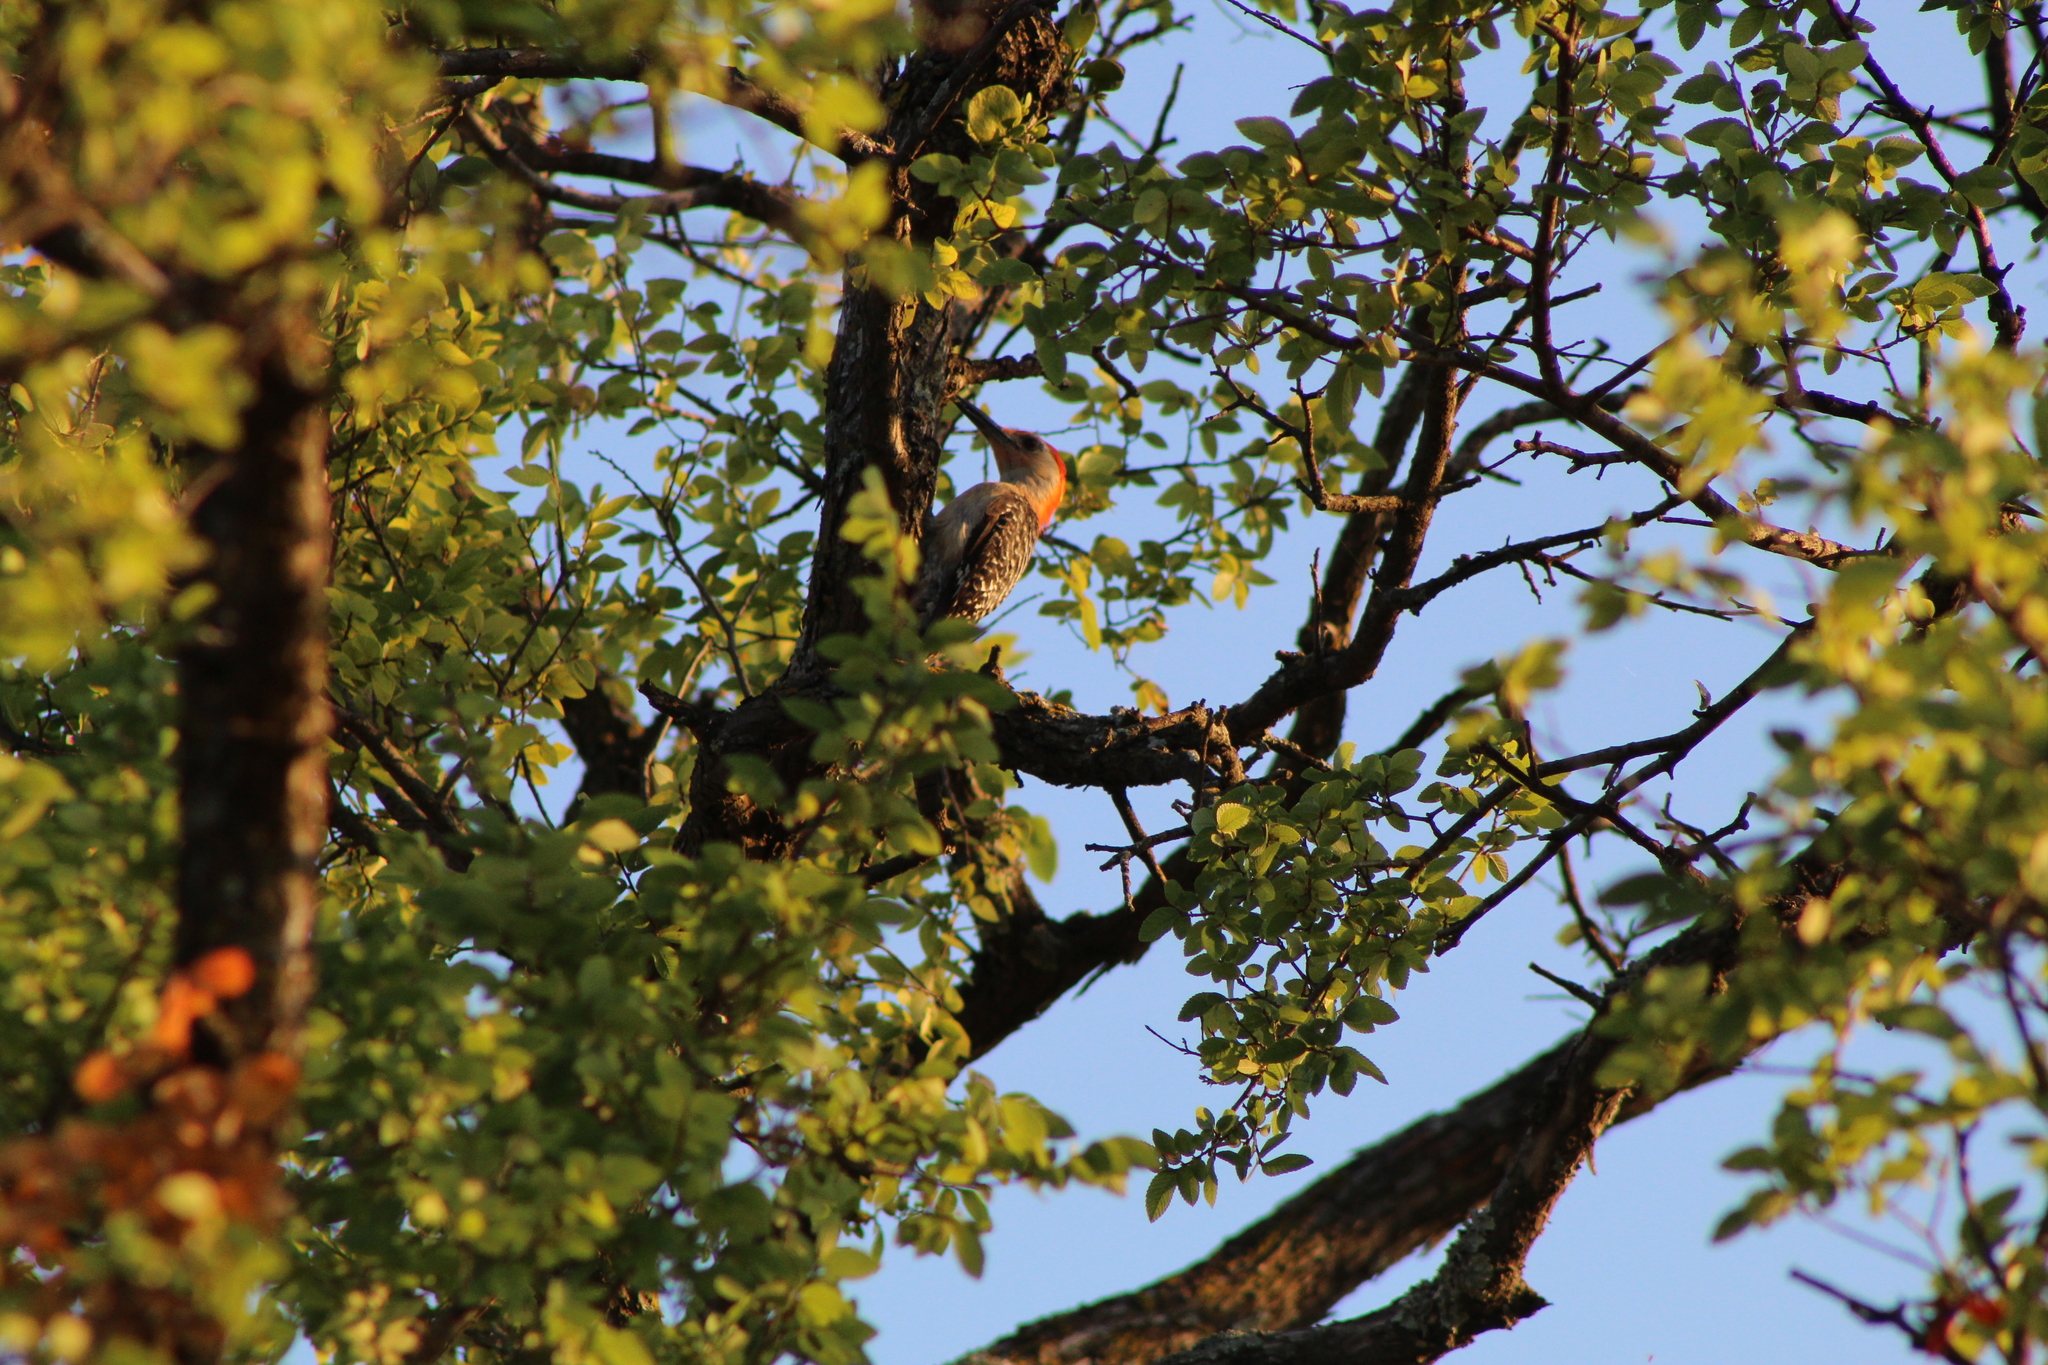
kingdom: Animalia
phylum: Chordata
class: Aves
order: Piciformes
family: Picidae
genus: Melanerpes
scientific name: Melanerpes carolinus
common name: Red-bellied woodpecker
